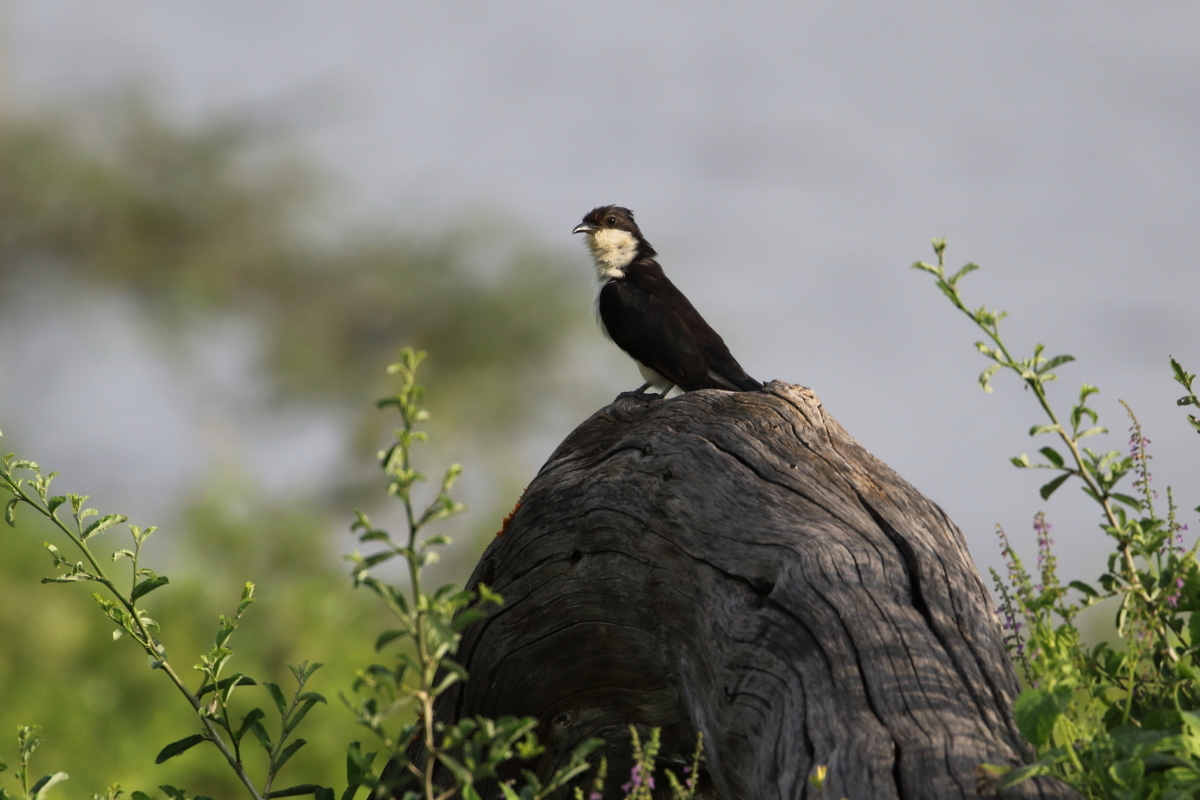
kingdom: Animalia
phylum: Chordata
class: Aves
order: Cuculiformes
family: Cuculidae
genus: Clamator
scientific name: Clamator jacobinus
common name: Jacobin cuckoo
